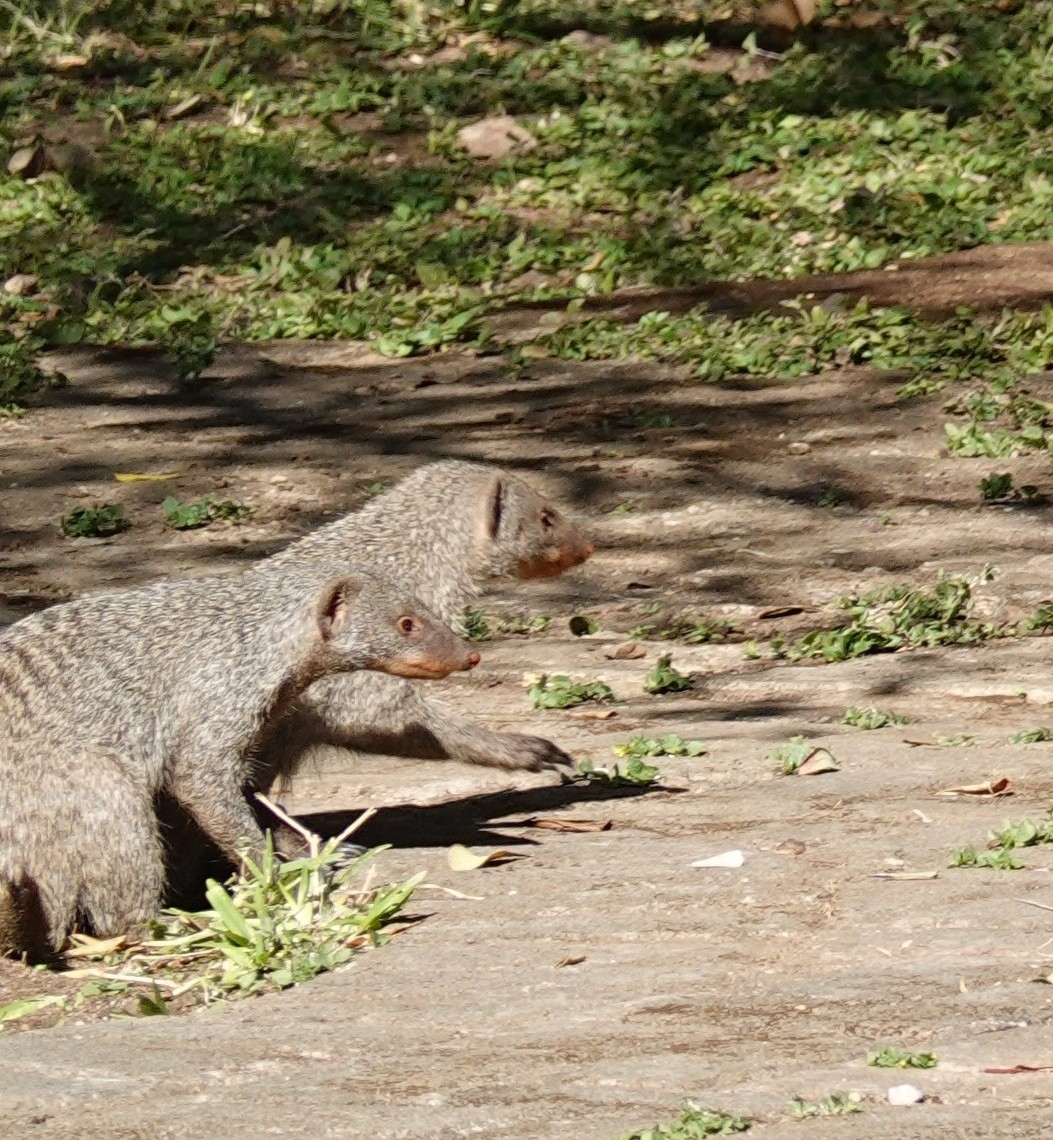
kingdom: Animalia
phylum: Chordata
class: Mammalia
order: Carnivora
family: Herpestidae
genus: Mungos
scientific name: Mungos mungo
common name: Banded mongoose
